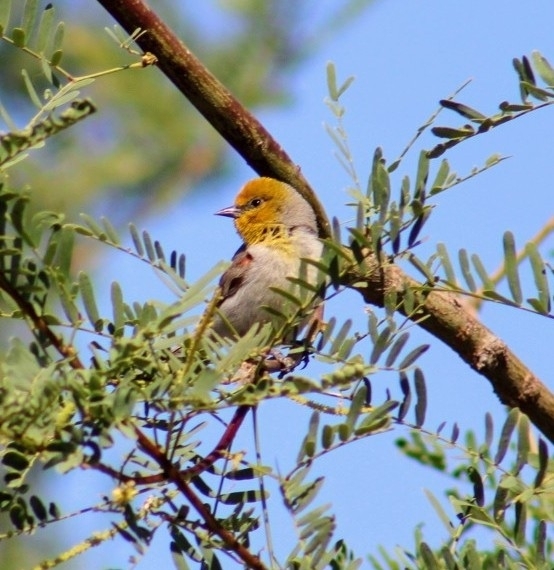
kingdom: Animalia
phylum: Chordata
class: Aves
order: Passeriformes
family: Remizidae
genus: Auriparus
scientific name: Auriparus flaviceps
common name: Verdin
